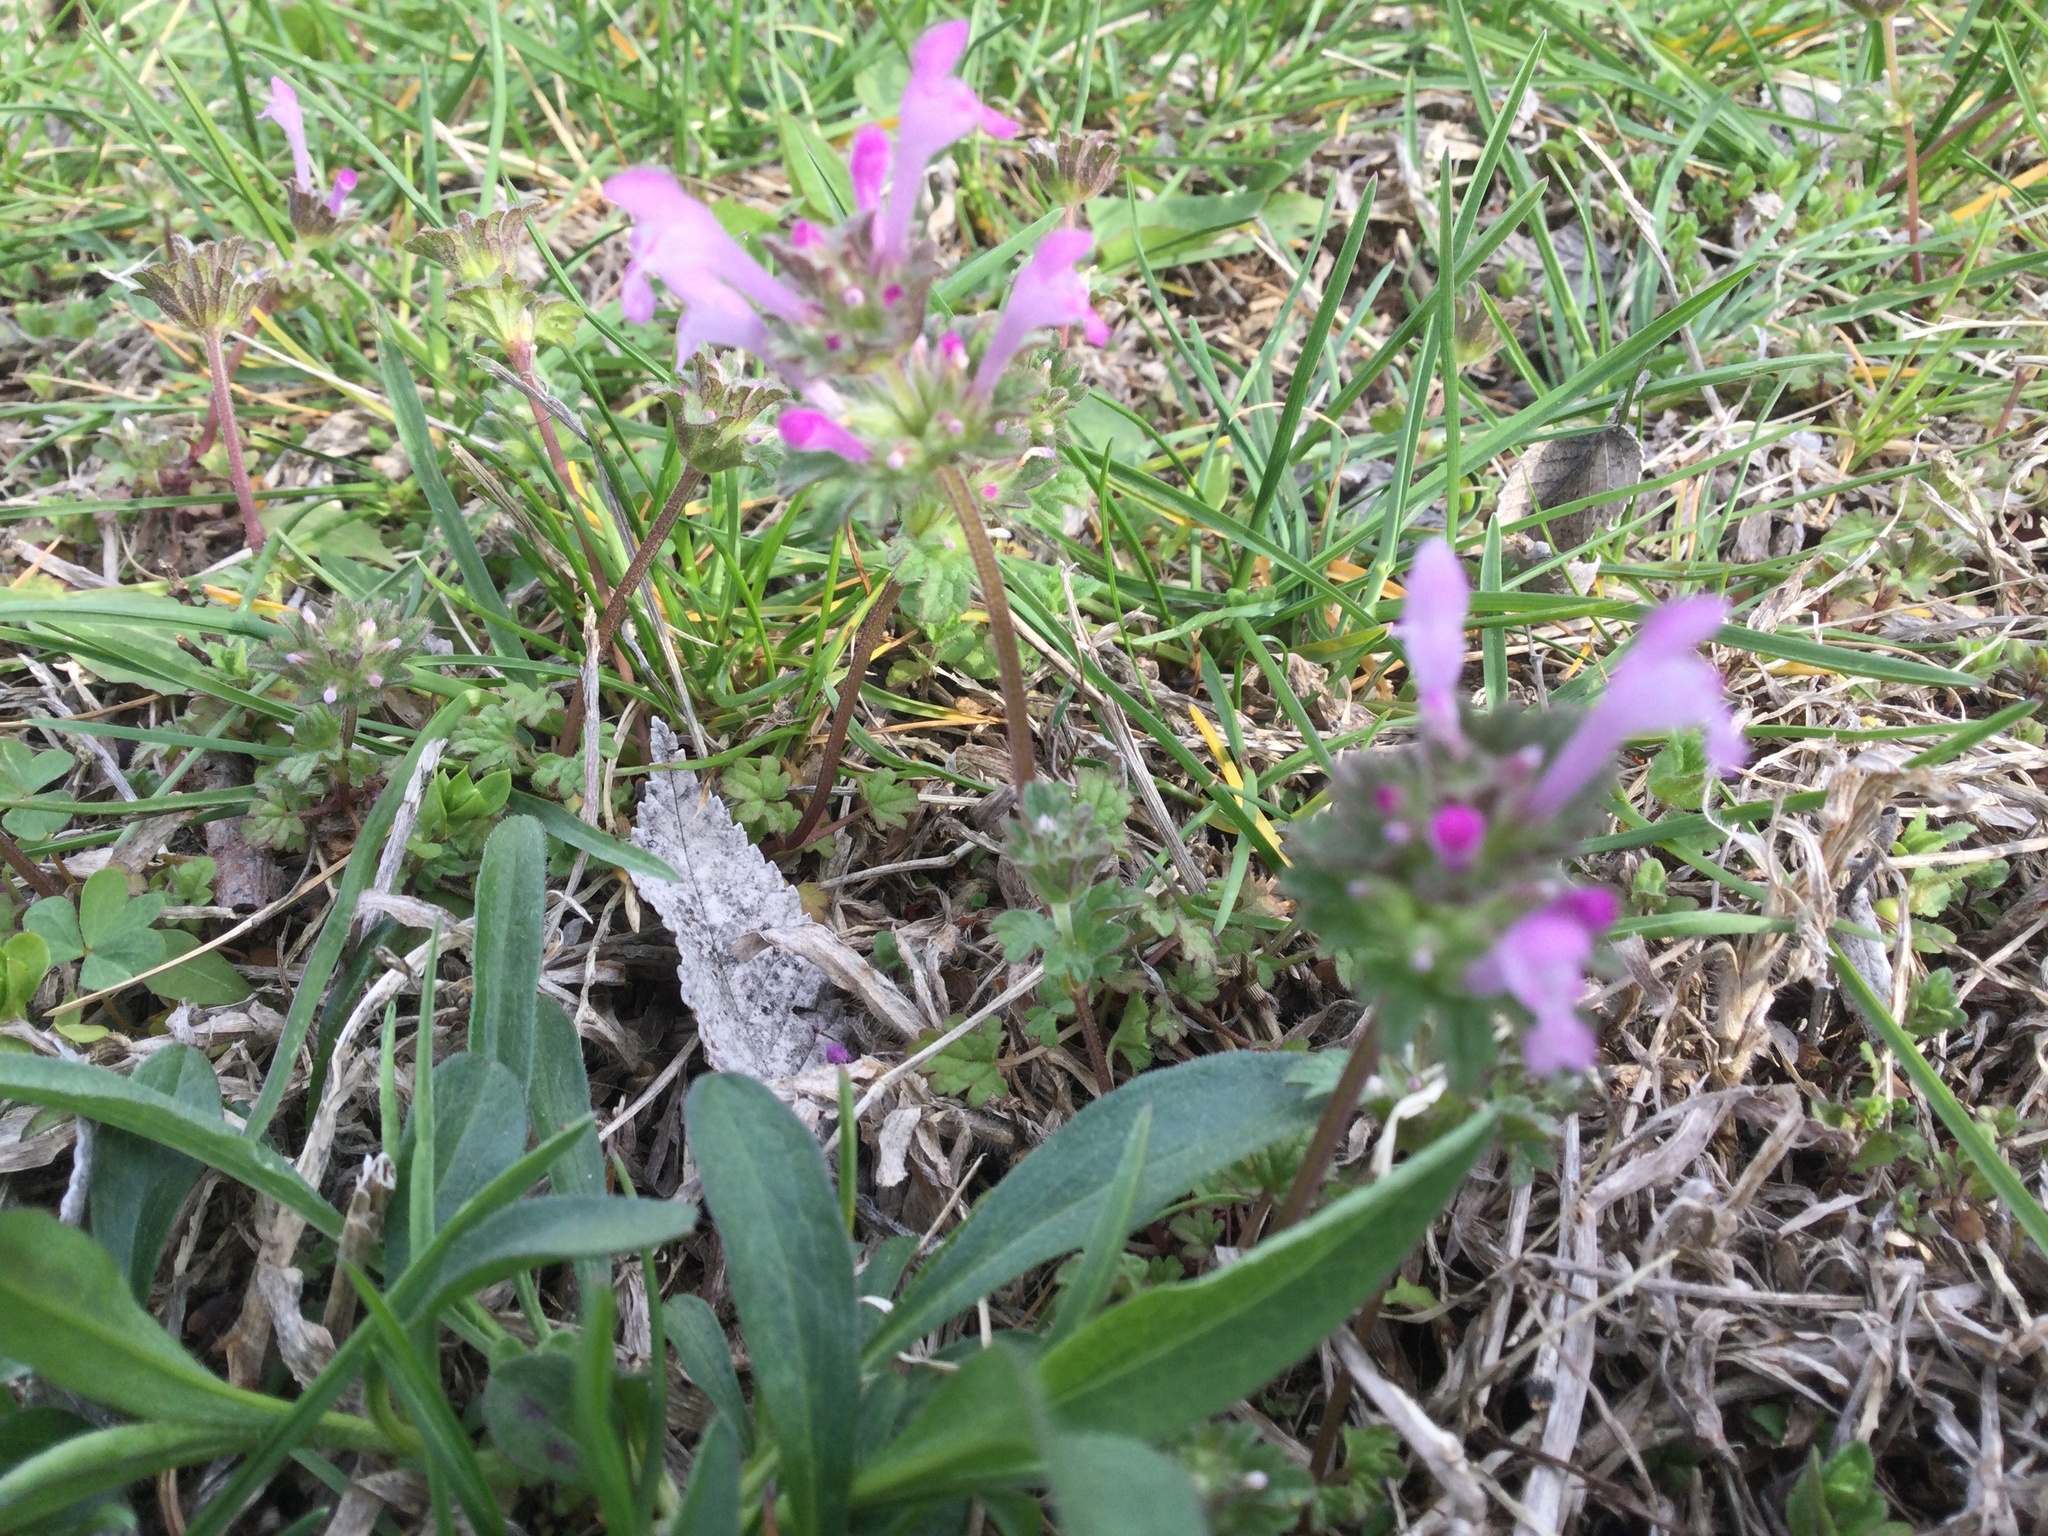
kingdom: Plantae
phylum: Tracheophyta
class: Magnoliopsida
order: Lamiales
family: Lamiaceae
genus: Lamium
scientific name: Lamium amplexicaule
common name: Henbit dead-nettle
